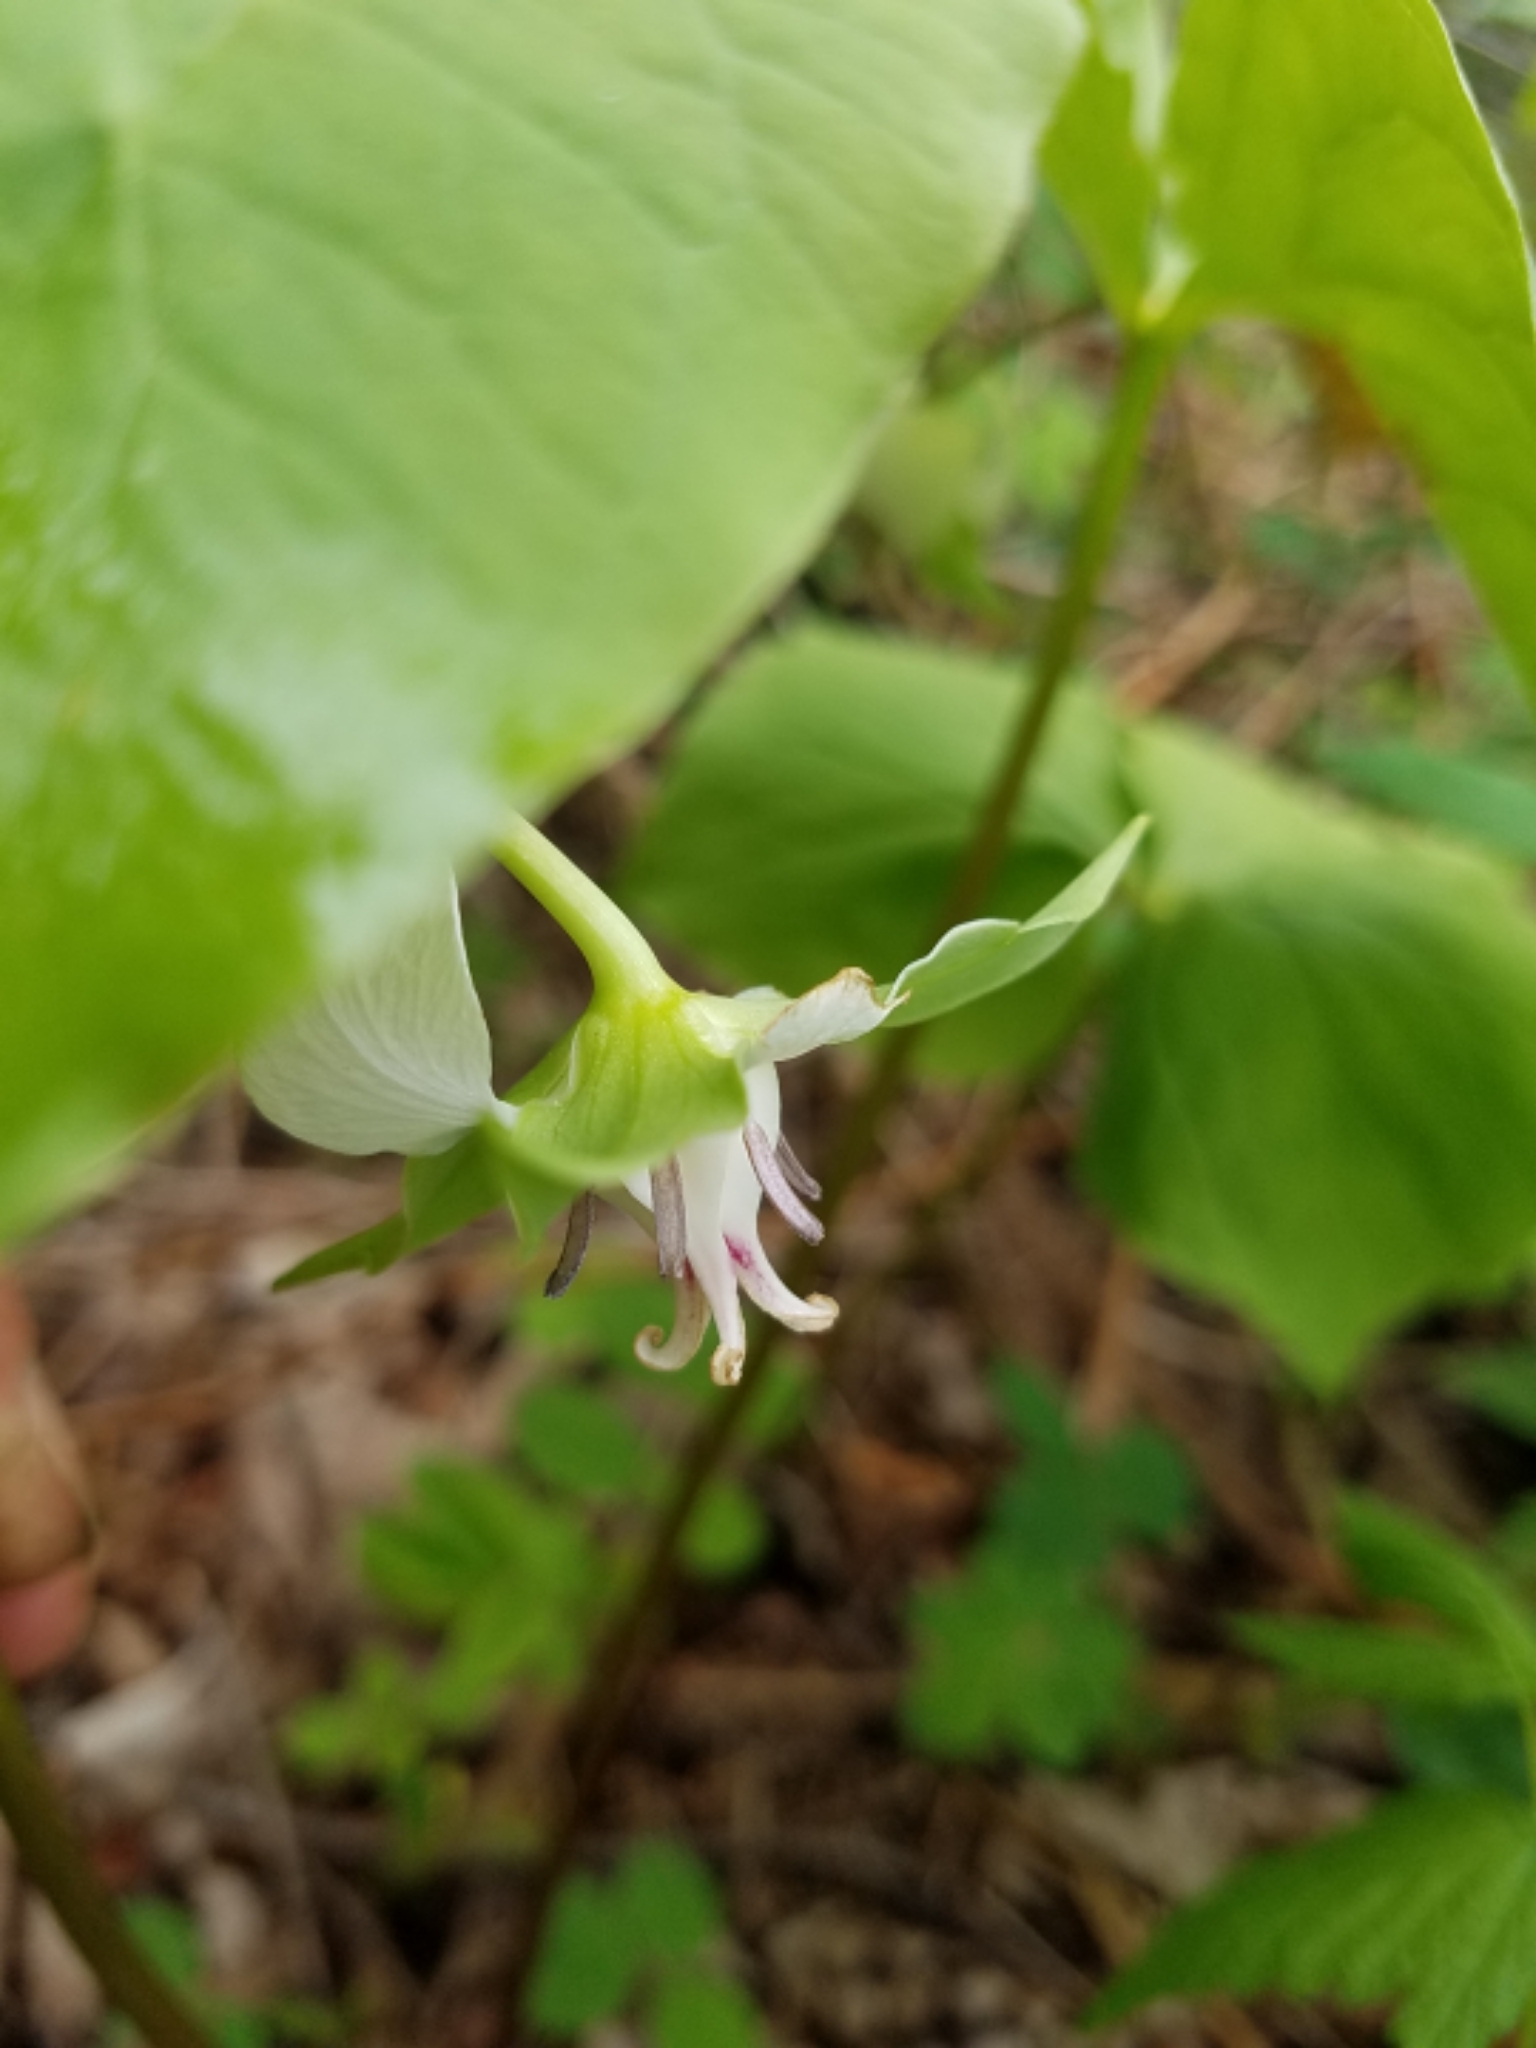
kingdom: Plantae
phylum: Tracheophyta
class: Liliopsida
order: Liliales
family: Melanthiaceae
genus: Trillium
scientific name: Trillium cernuum
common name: Nodding trillium
